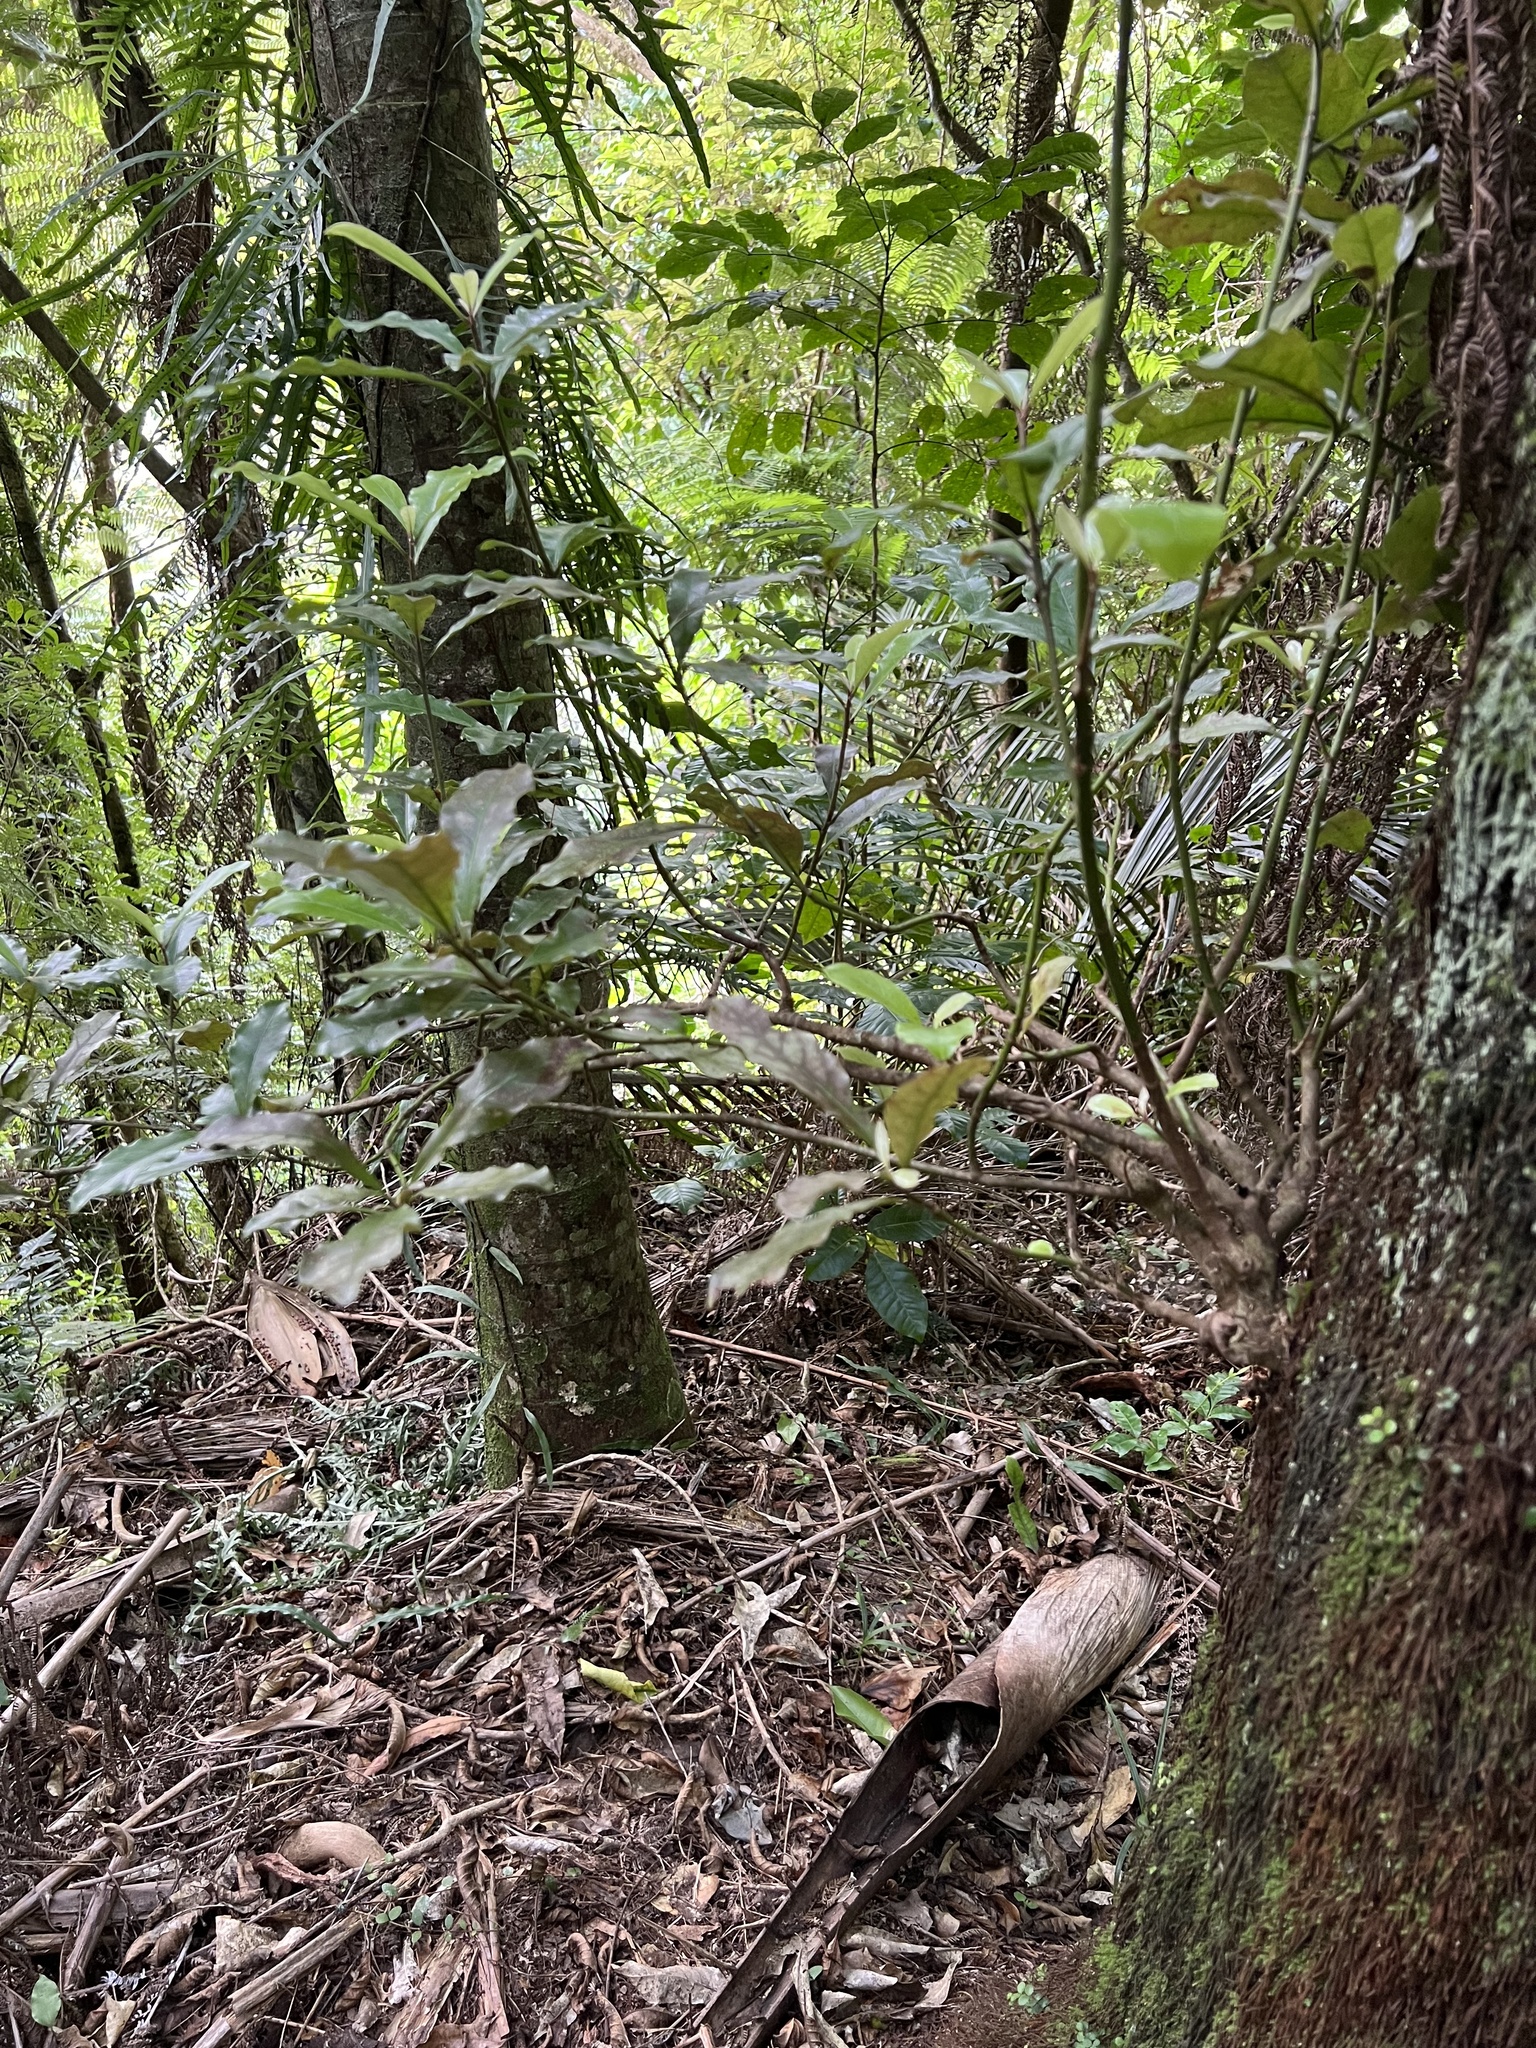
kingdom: Plantae
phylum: Tracheophyta
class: Magnoliopsida
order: Asterales
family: Alseuosmiaceae
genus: Alseuosmia
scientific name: Alseuosmia macrophylla
